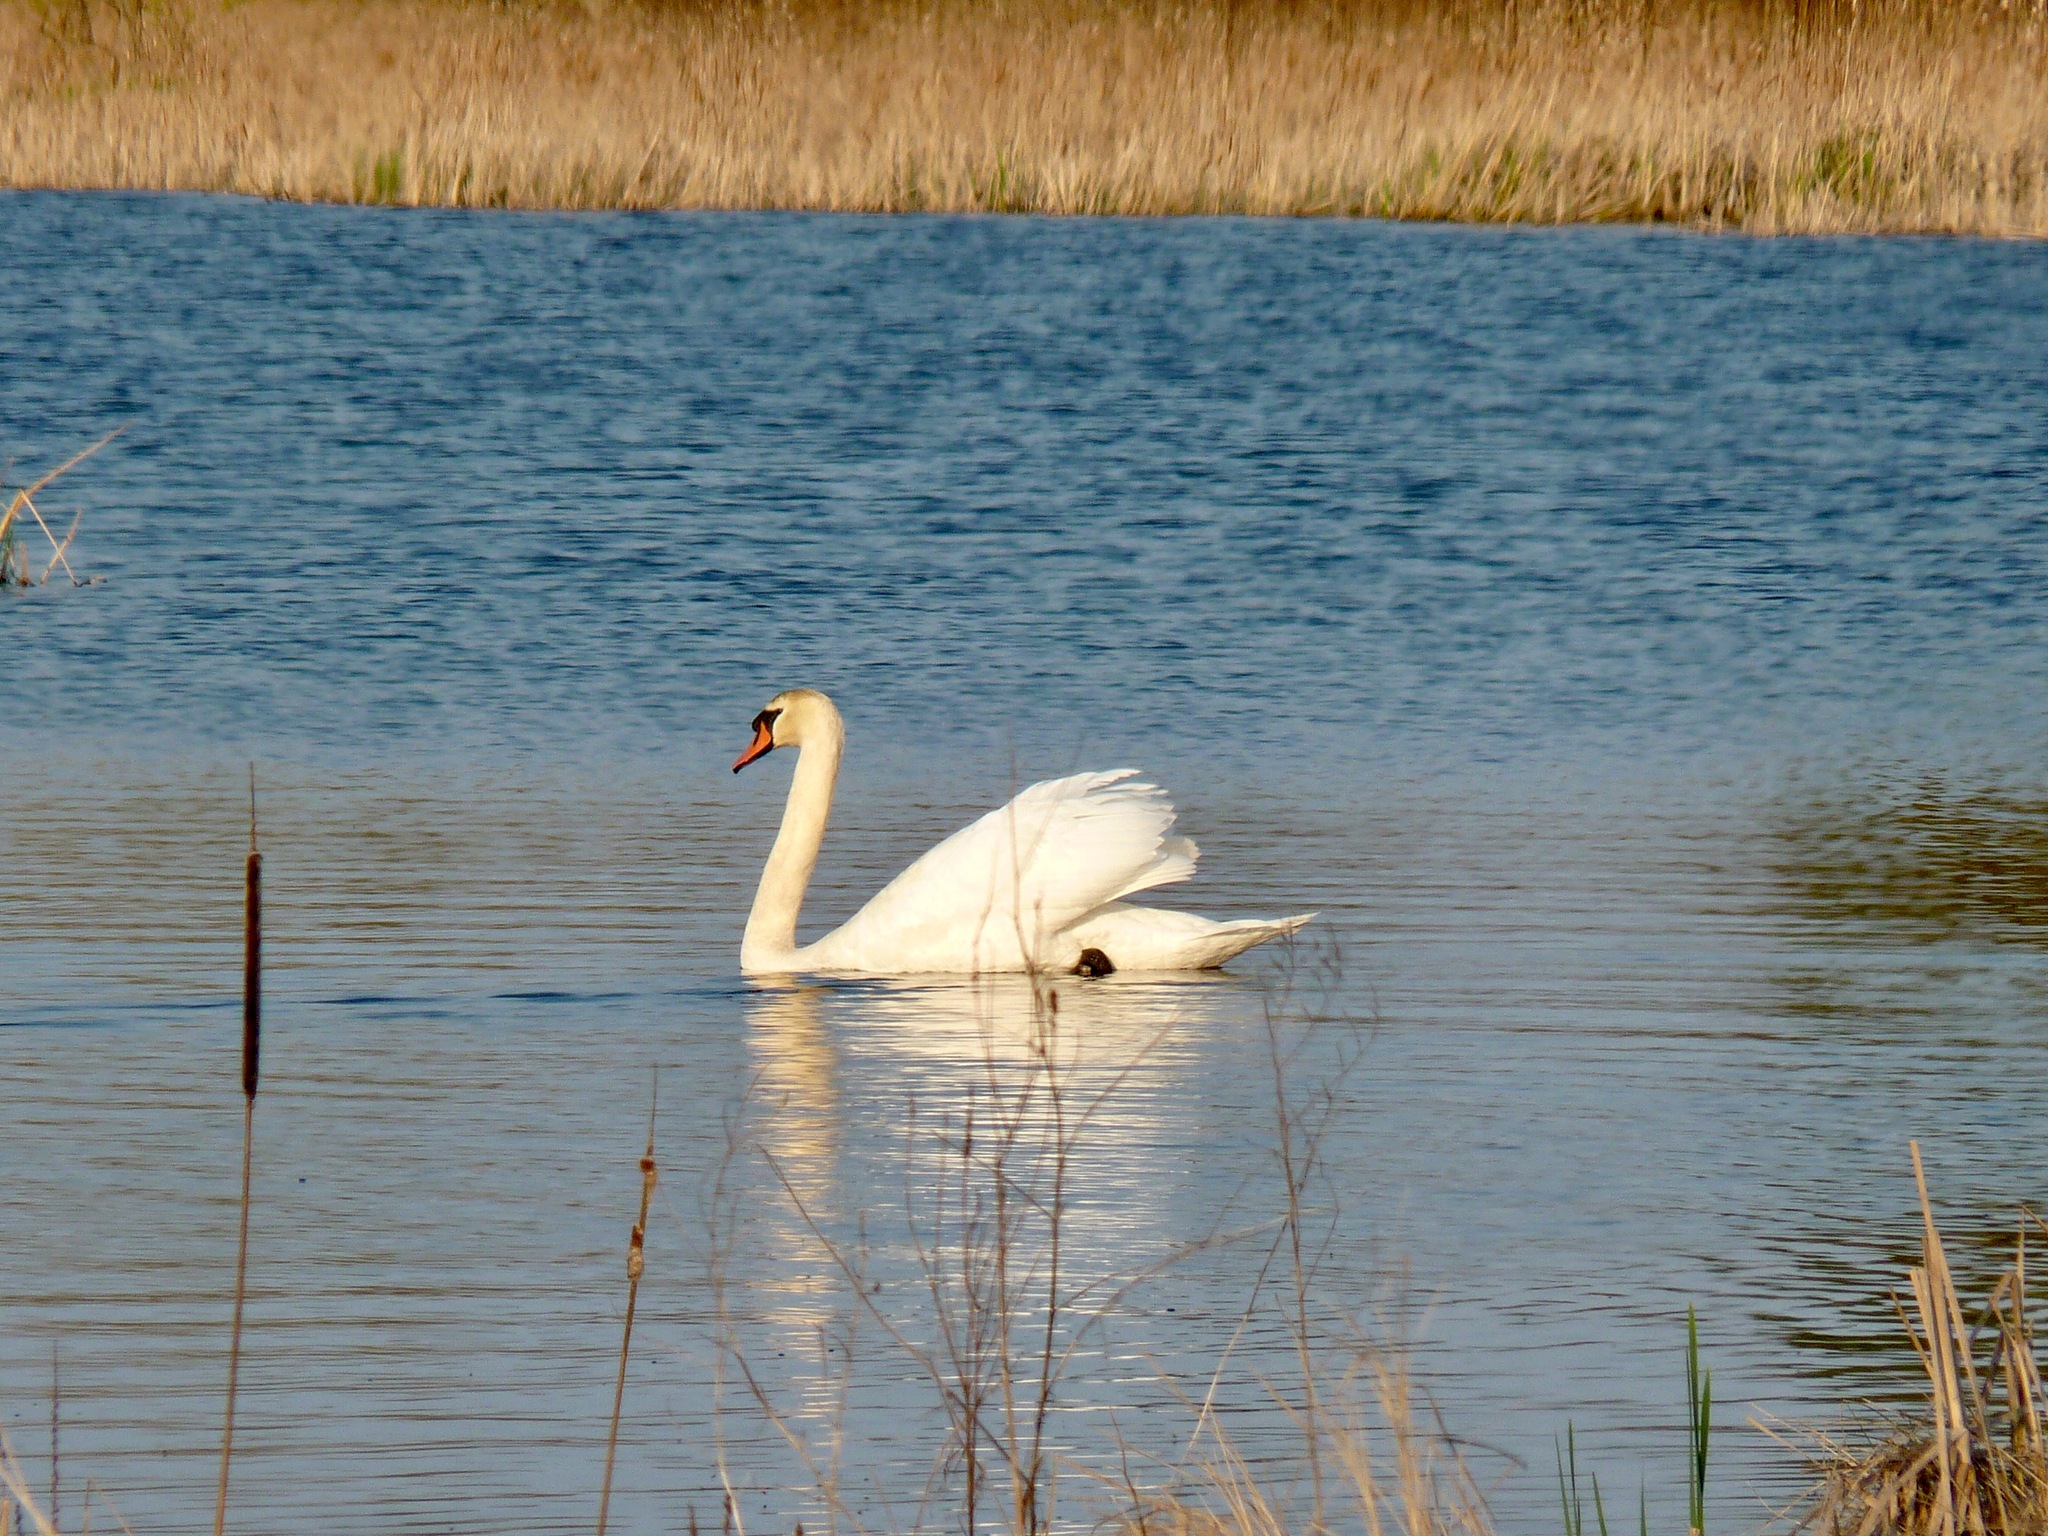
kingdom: Animalia
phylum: Chordata
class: Aves
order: Anseriformes
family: Anatidae
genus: Cygnus
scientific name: Cygnus olor
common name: Mute swan
